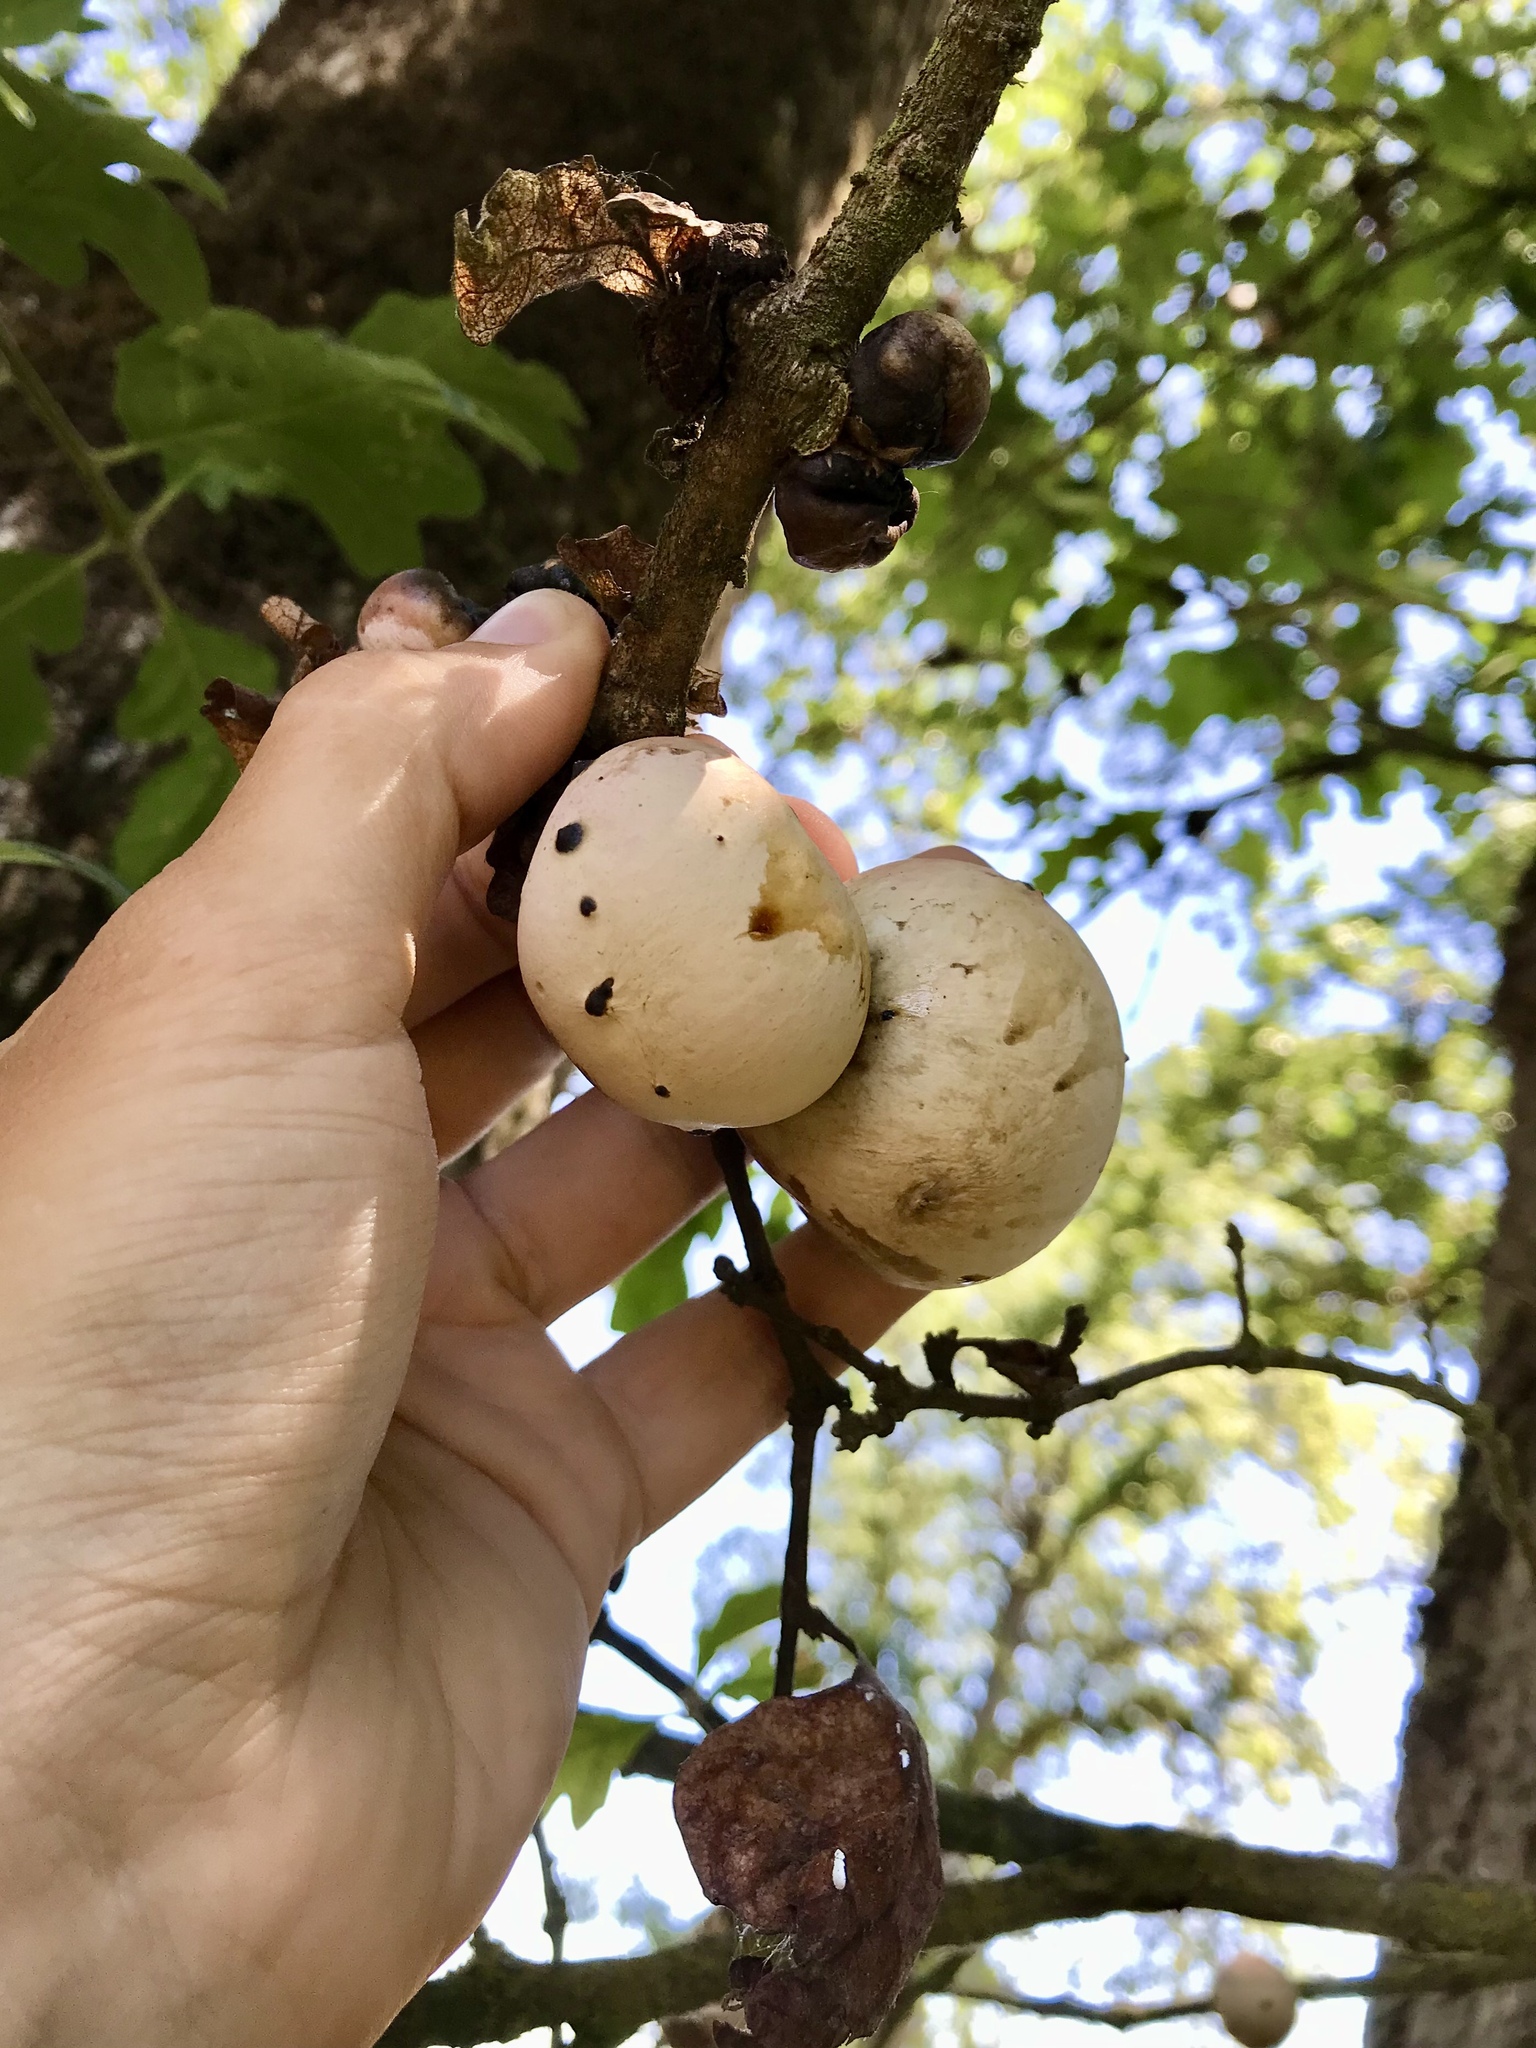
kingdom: Animalia
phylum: Arthropoda
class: Insecta
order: Hymenoptera
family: Cynipidae
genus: Andricus
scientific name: Andricus quercuscalifornicus
